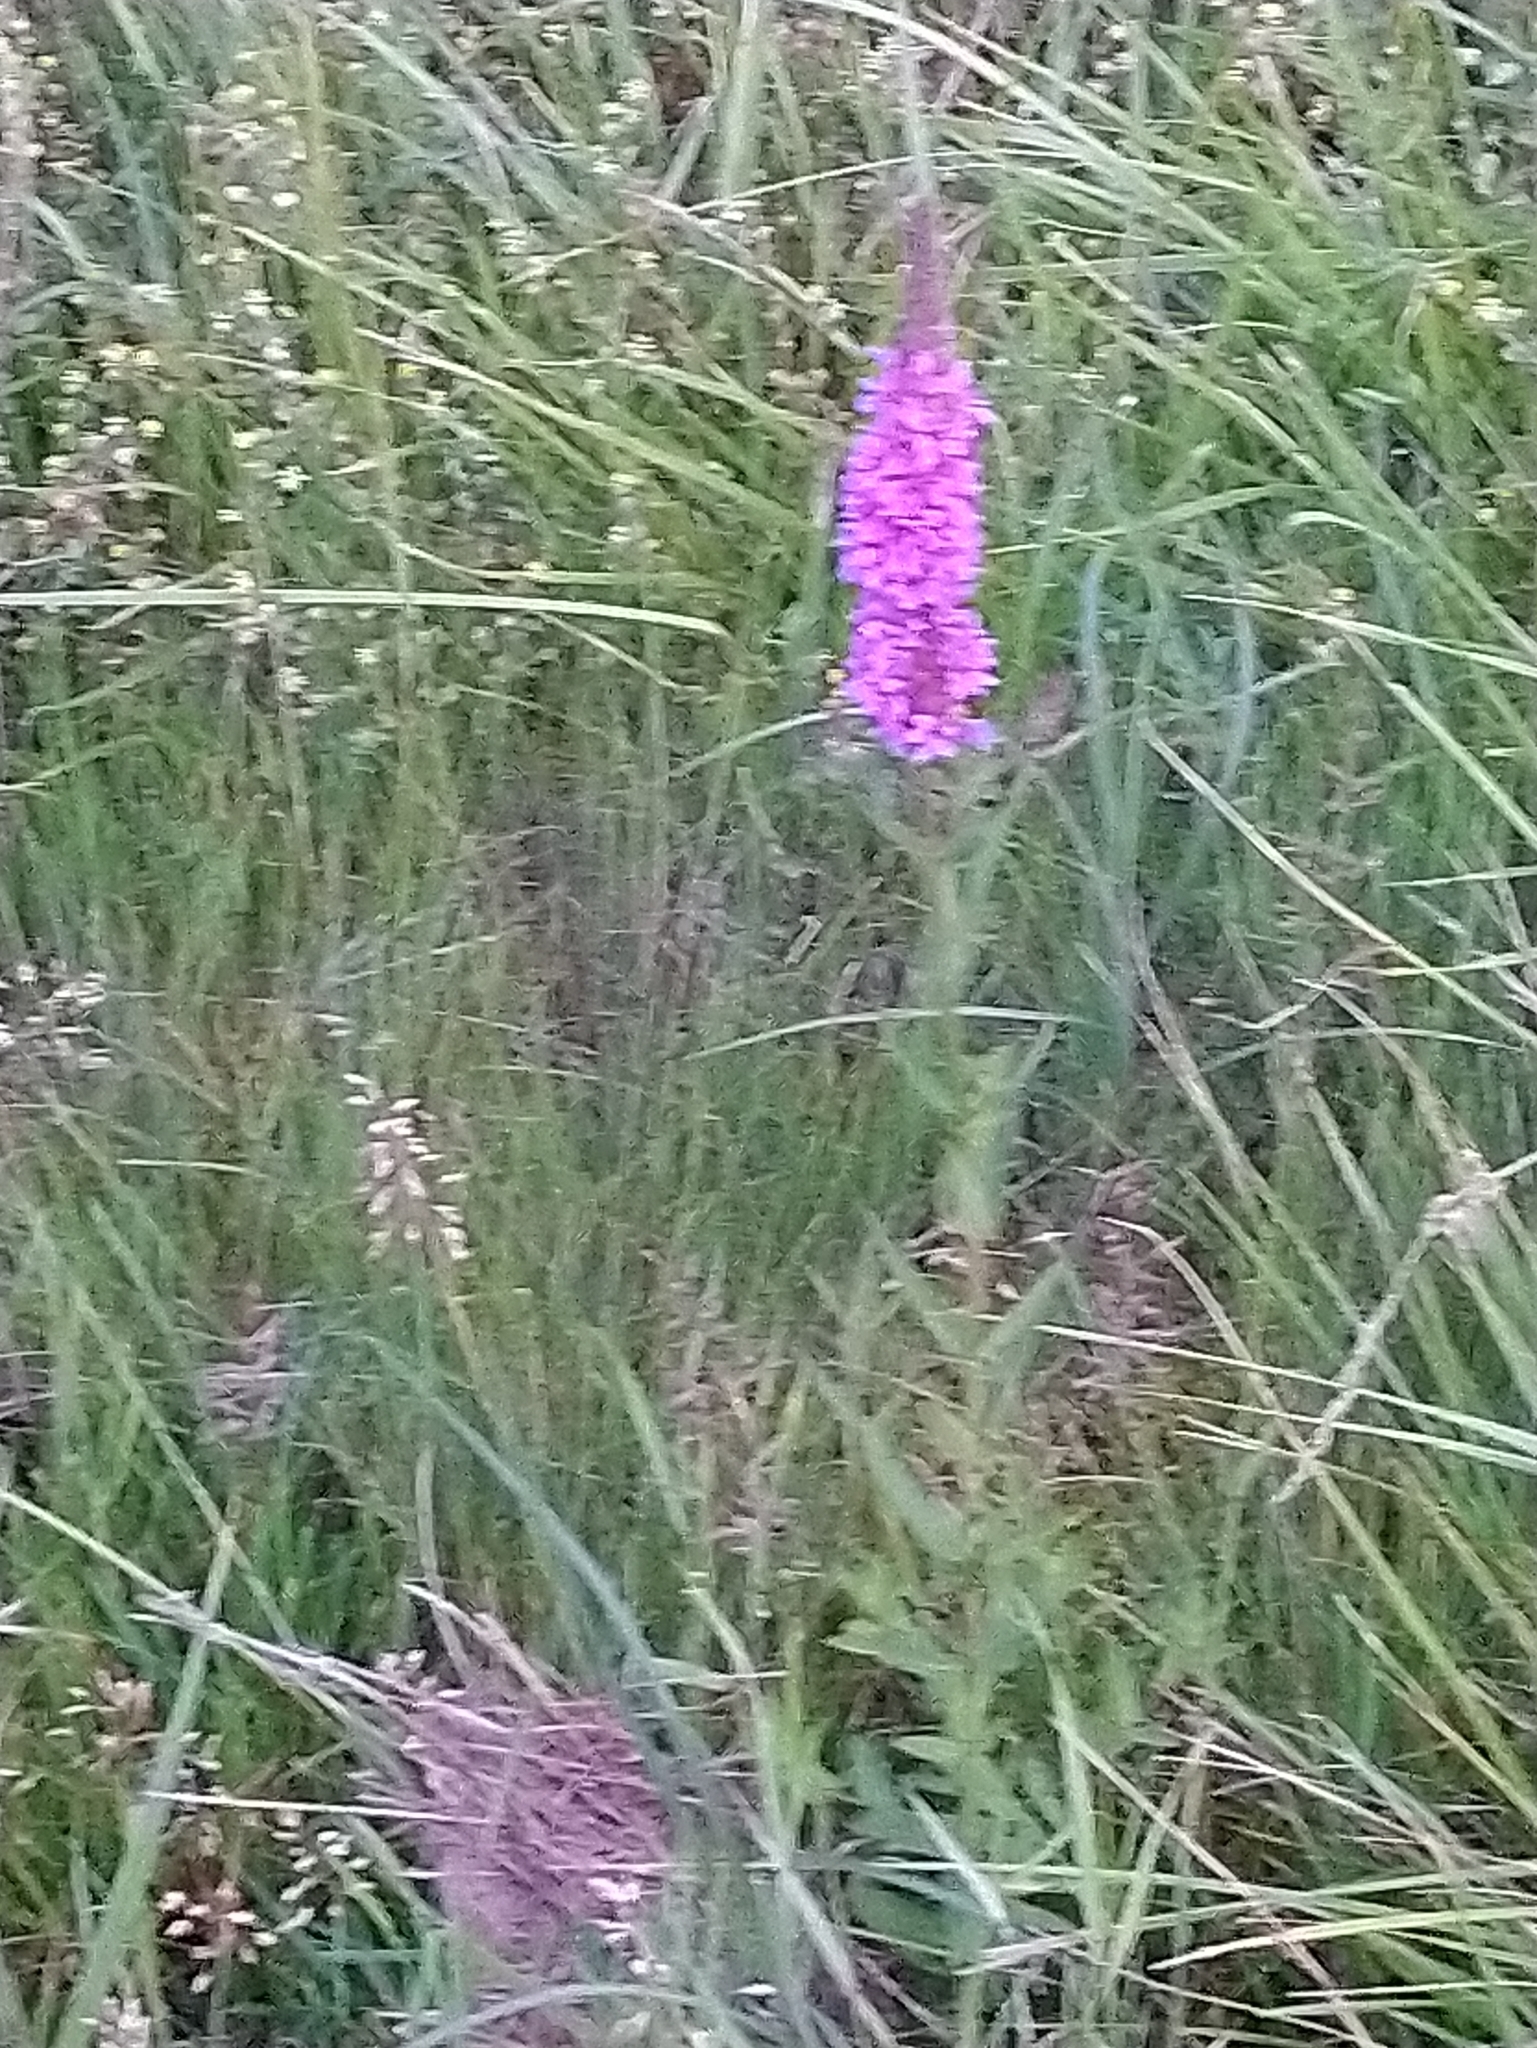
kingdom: Plantae
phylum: Tracheophyta
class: Magnoliopsida
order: Myrtales
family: Lythraceae
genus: Lythrum
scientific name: Lythrum salicaria
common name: Purple loosestrife
